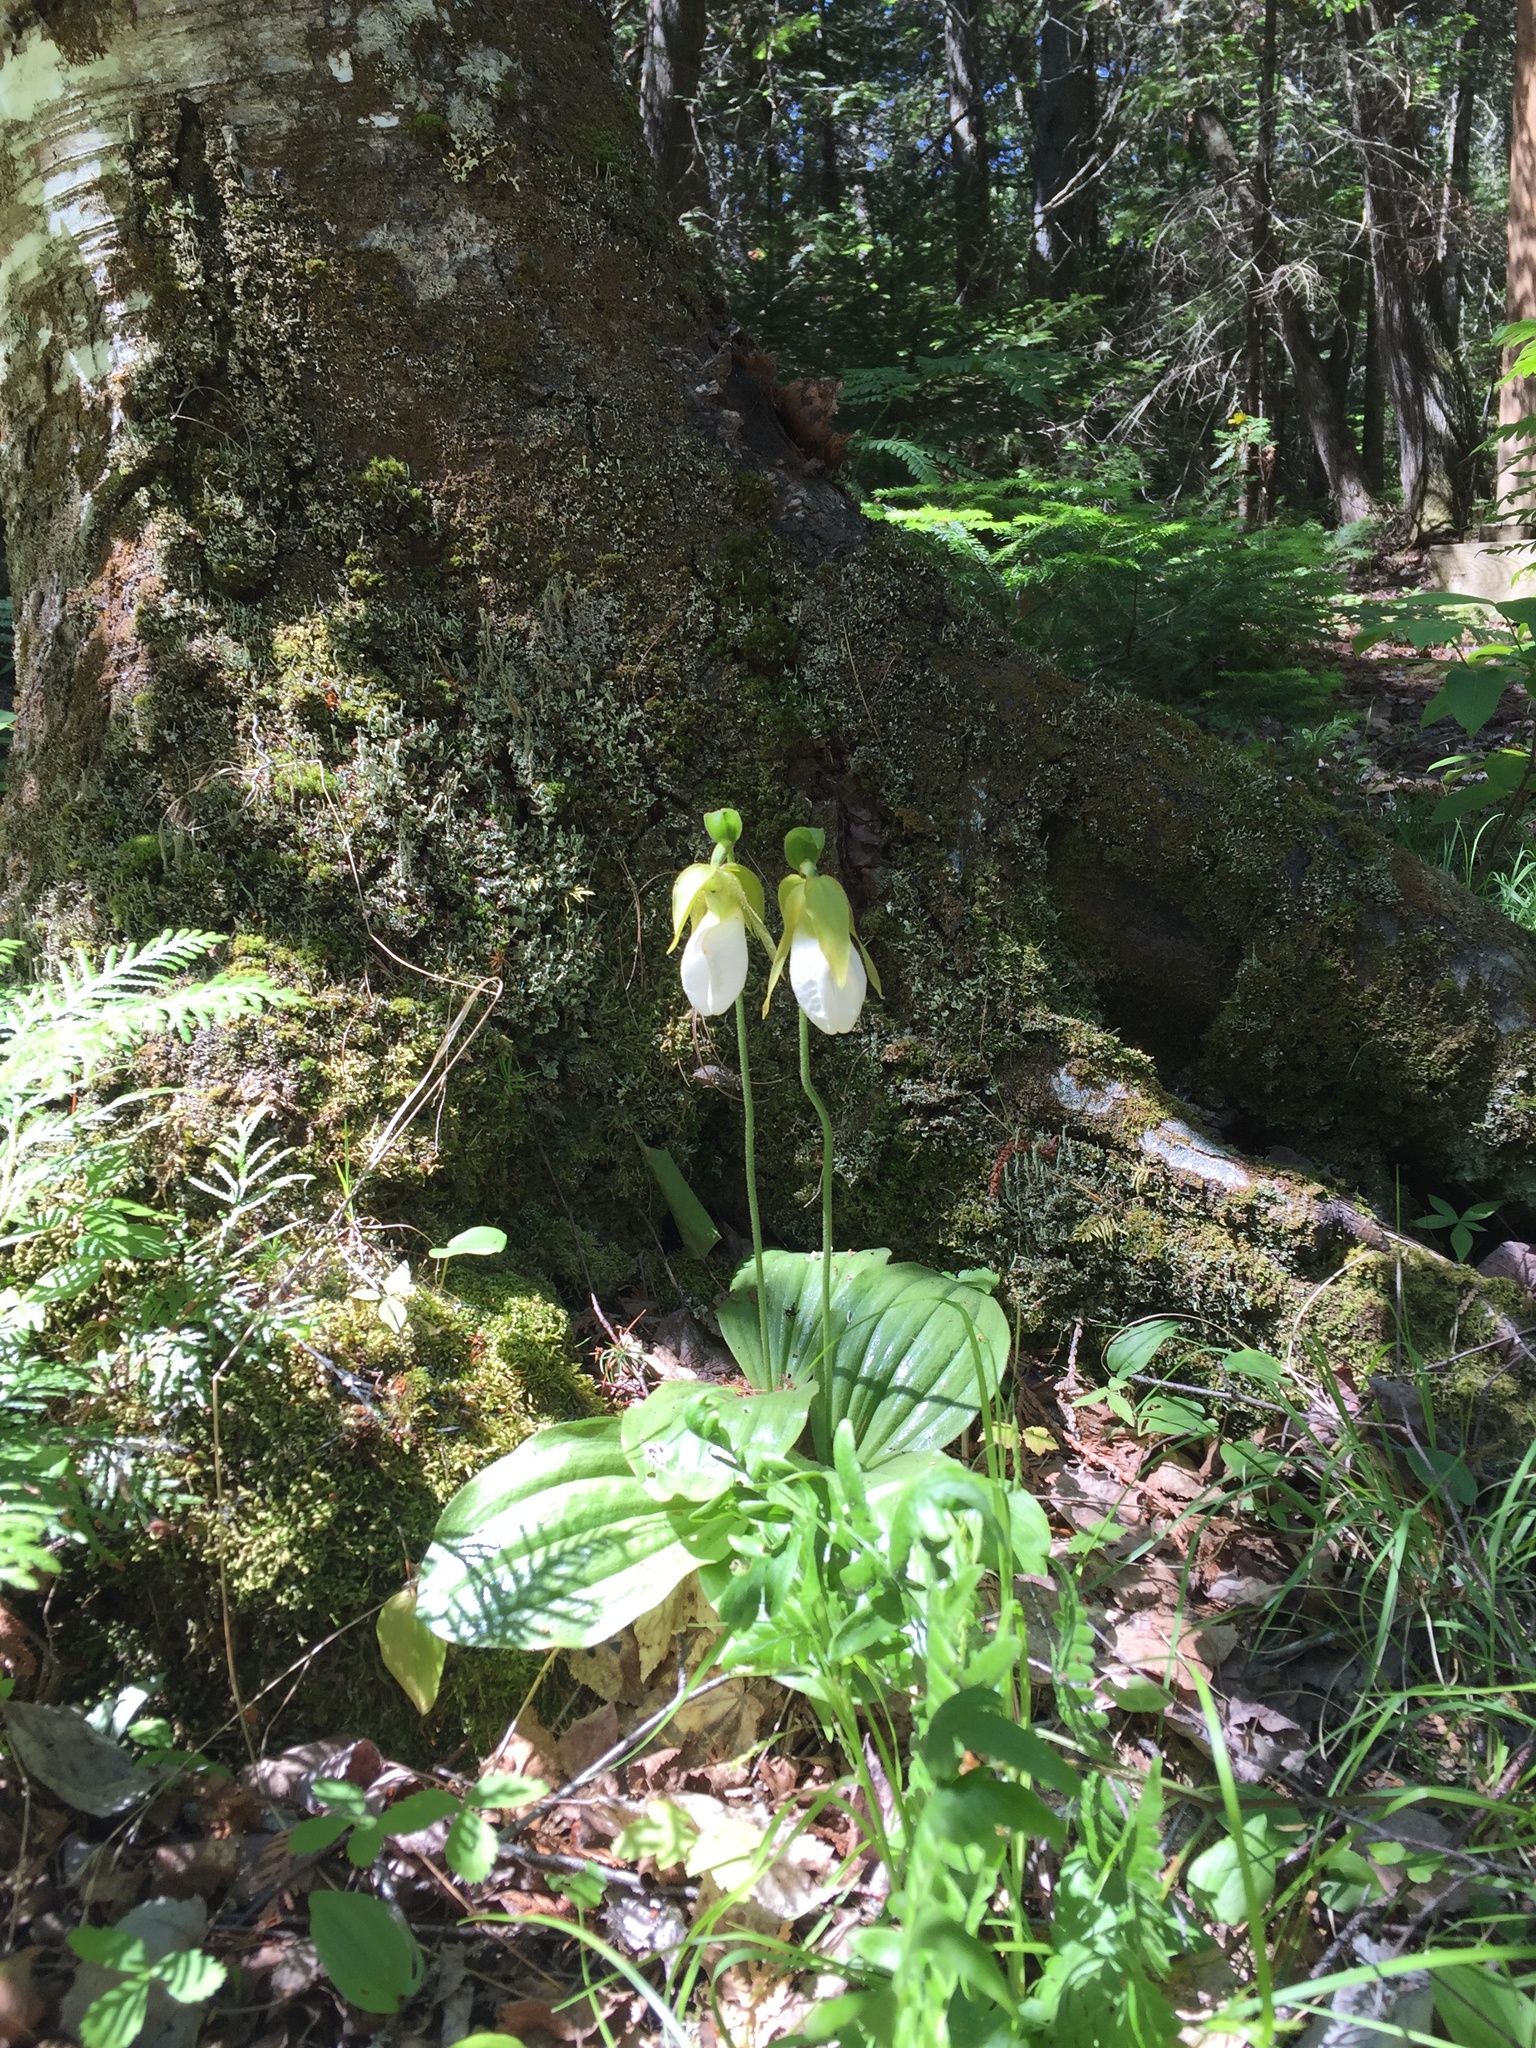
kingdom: Plantae
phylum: Tracheophyta
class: Liliopsida
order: Asparagales
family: Orchidaceae
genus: Cypripedium
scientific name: Cypripedium acaule
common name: Pink lady's-slipper
